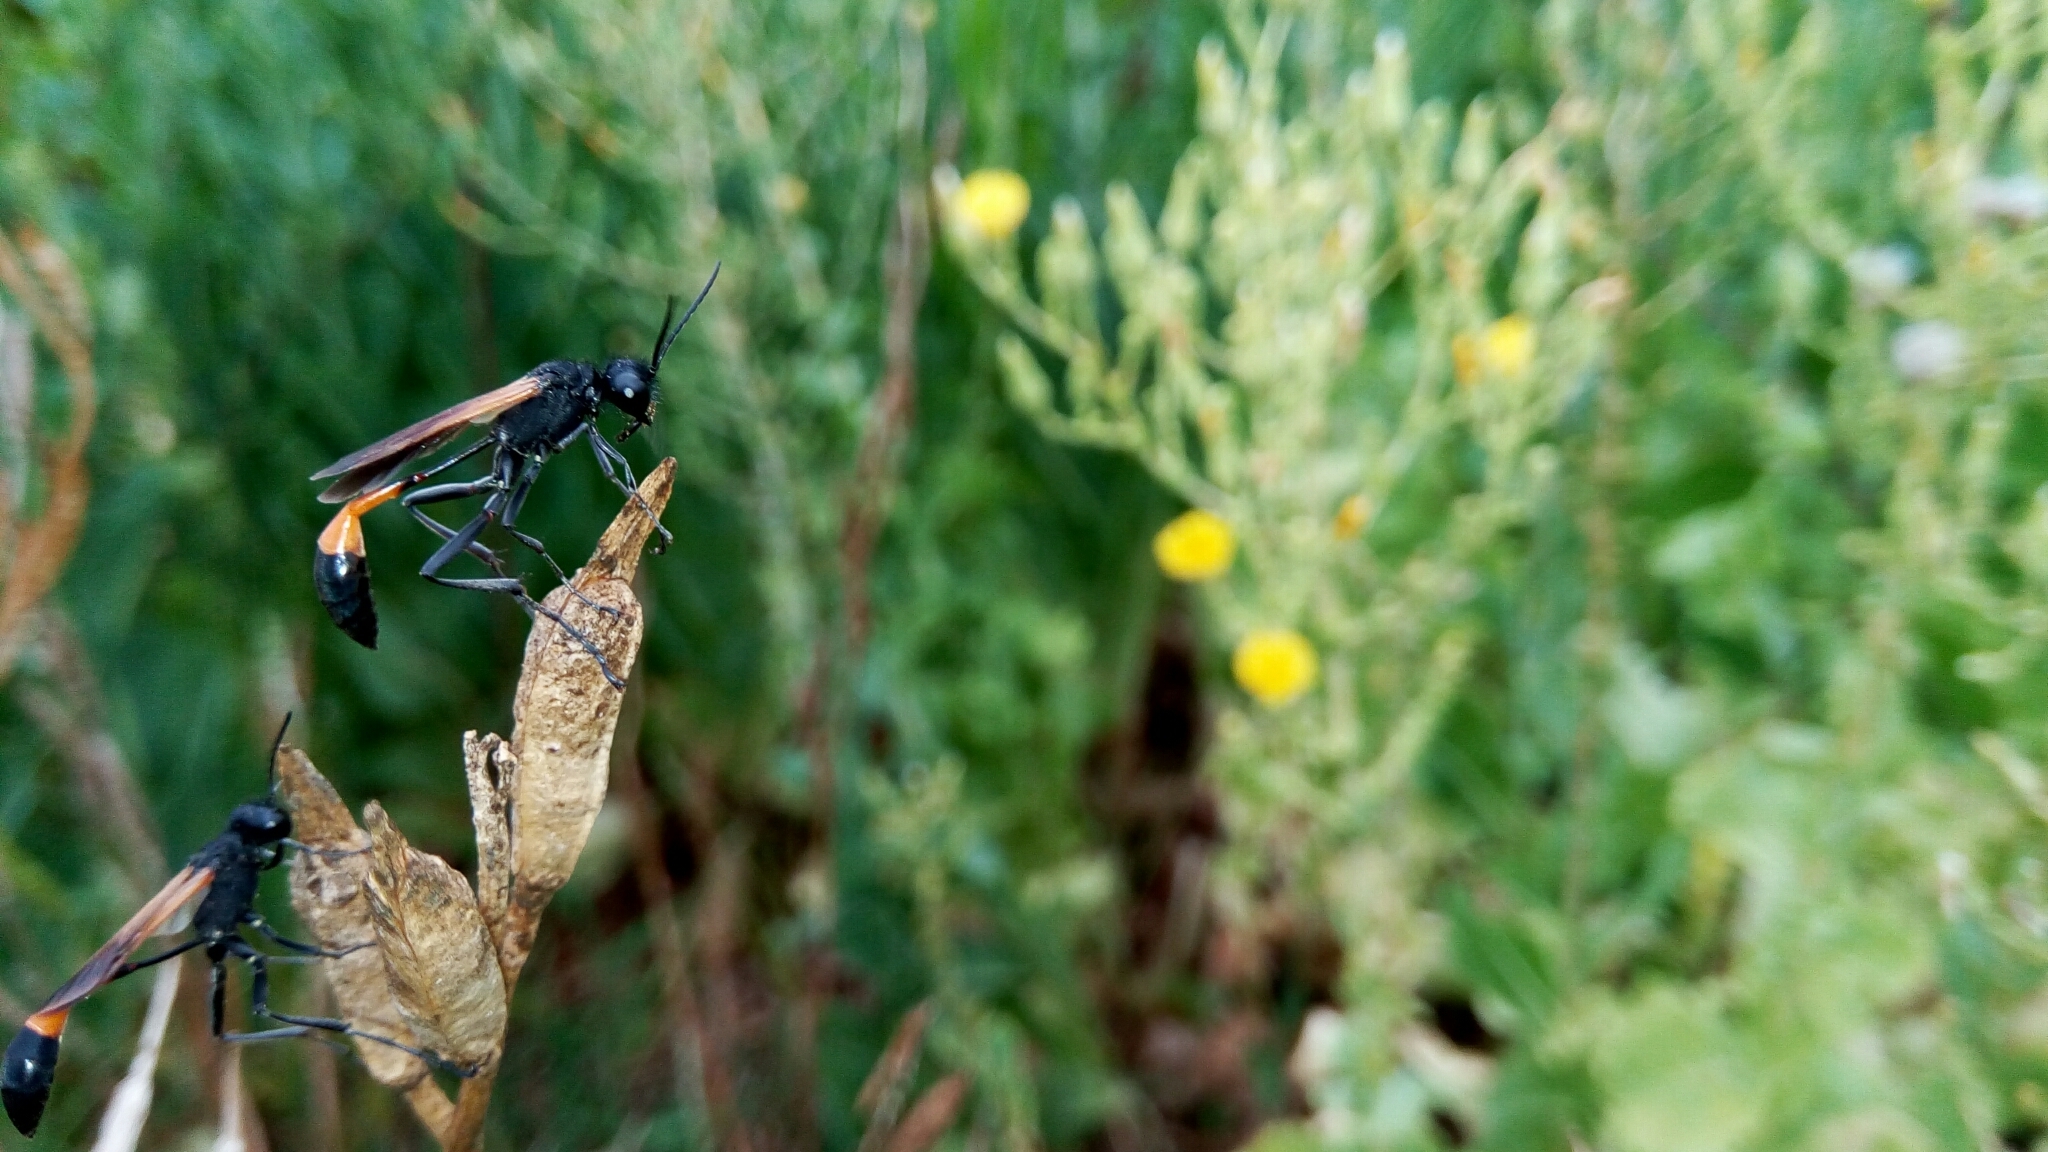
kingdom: Animalia
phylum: Arthropoda
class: Insecta
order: Hymenoptera
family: Sphecidae
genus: Ammophila
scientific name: Ammophila pictipennis
